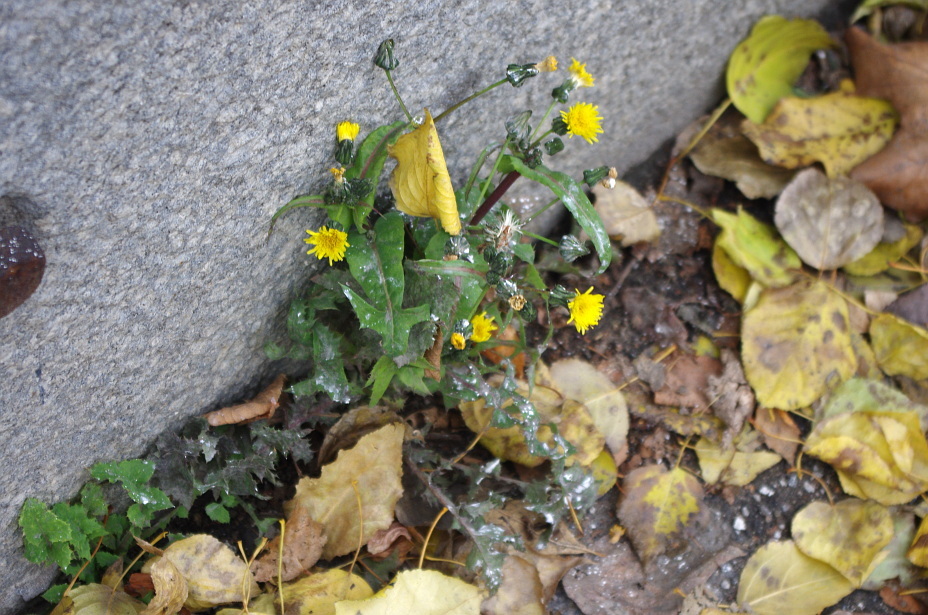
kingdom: Plantae
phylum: Tracheophyta
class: Magnoliopsida
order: Asterales
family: Asteraceae
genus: Sonchus
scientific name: Sonchus oleraceus
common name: Common sowthistle
